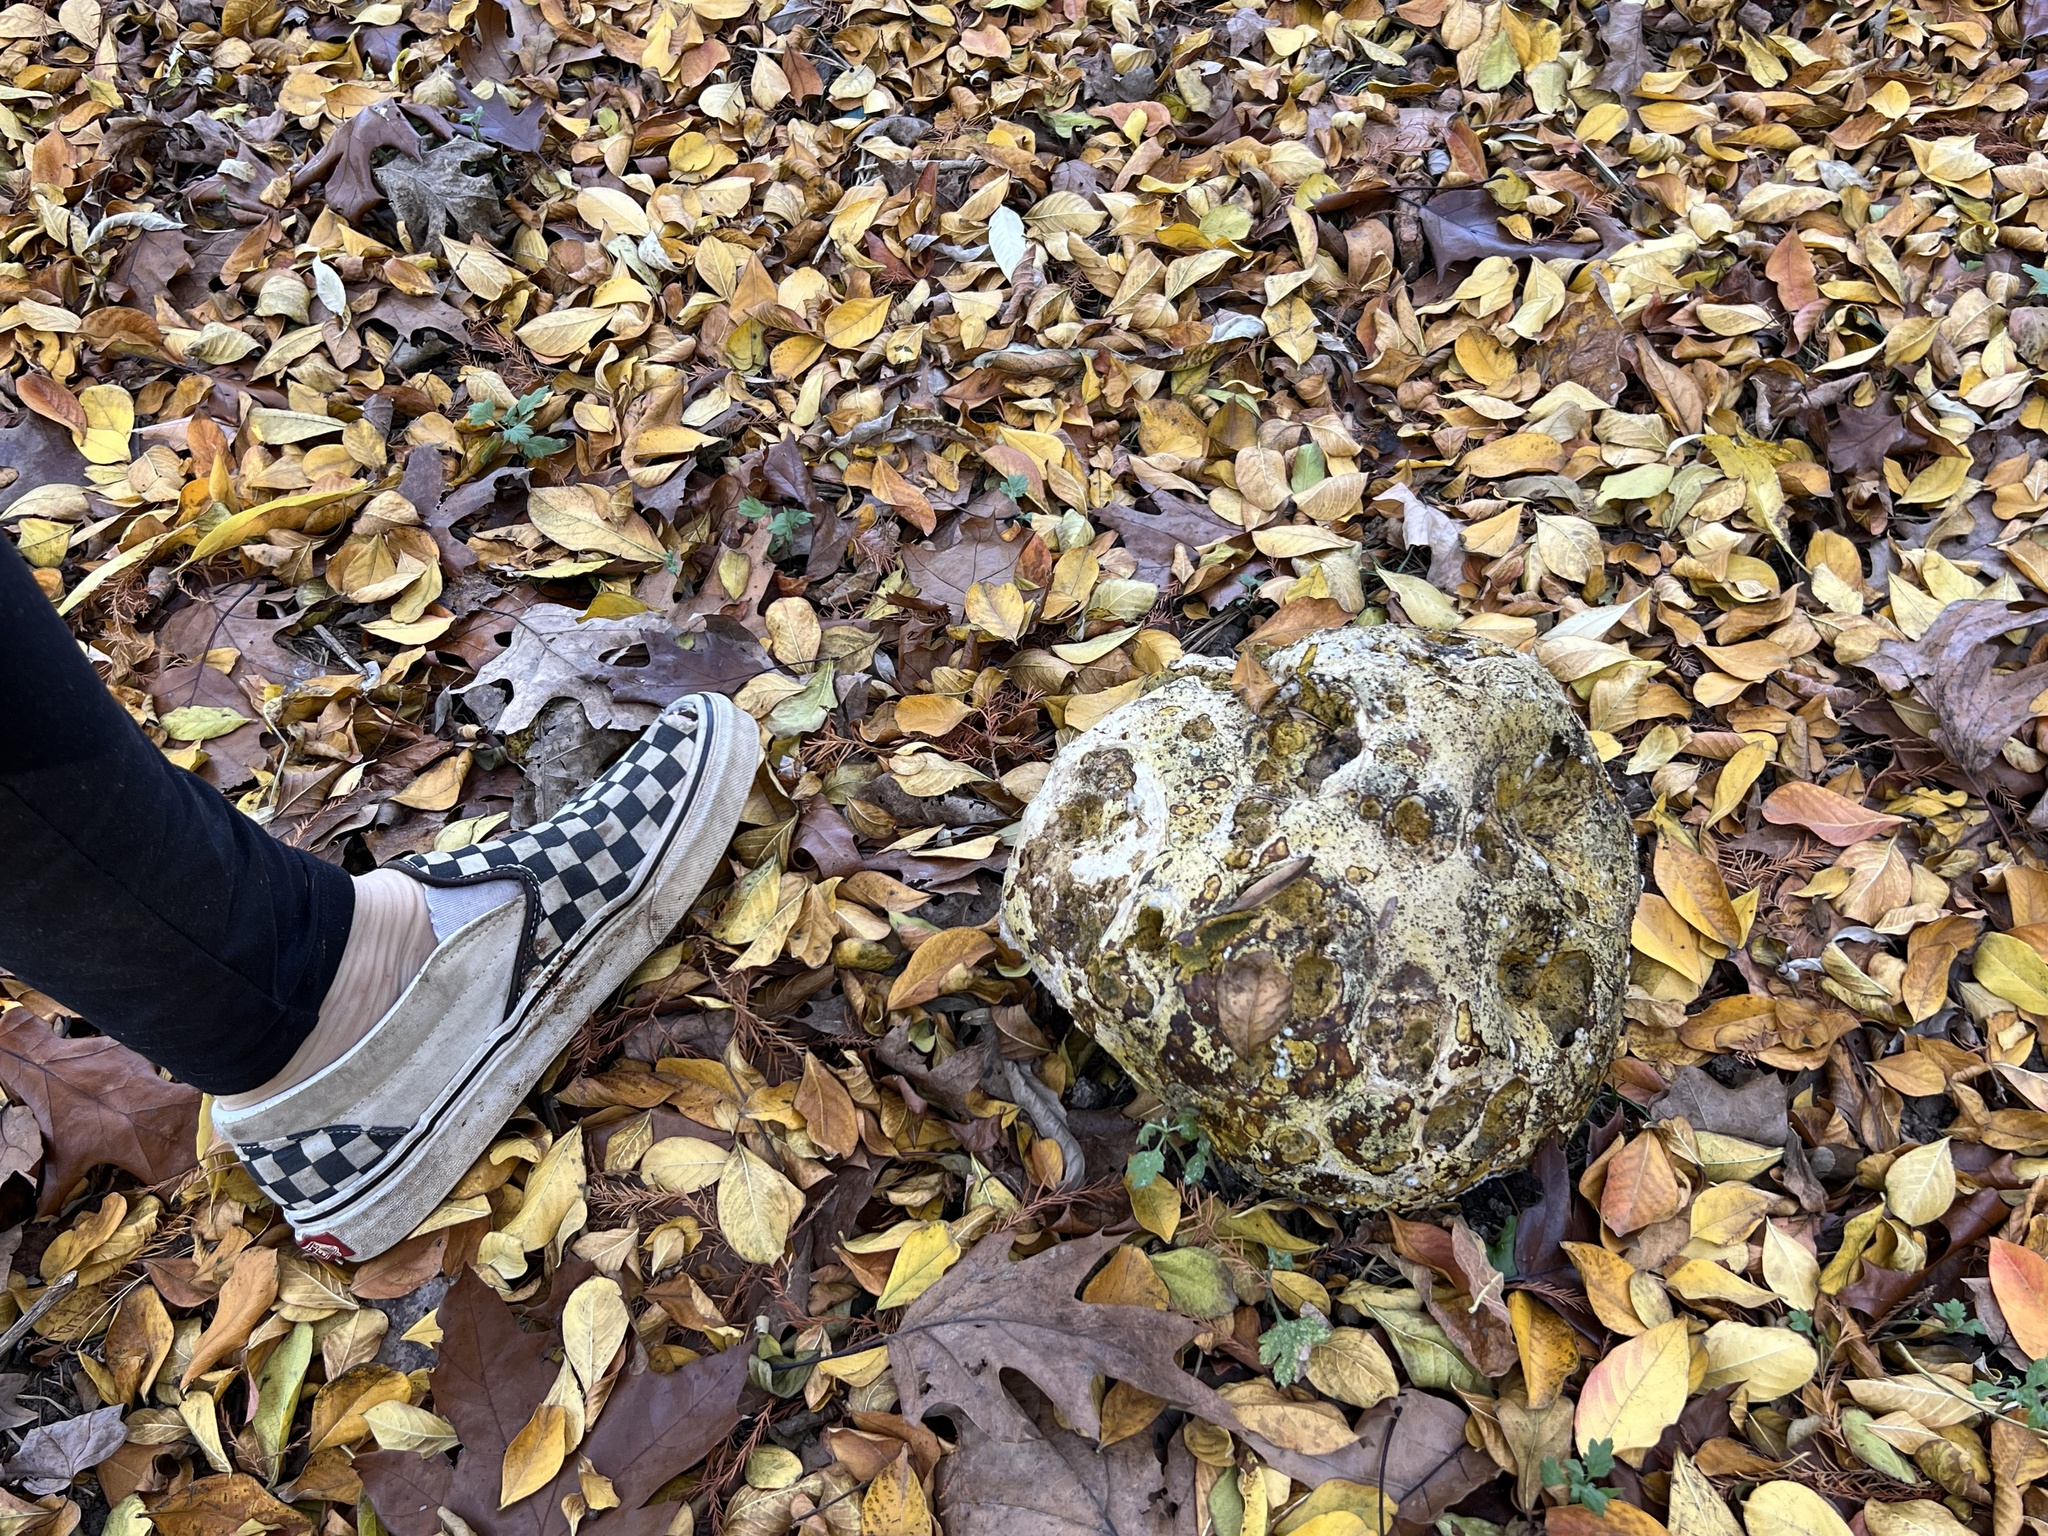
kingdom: Fungi
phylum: Basidiomycota
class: Agaricomycetes
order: Agaricales
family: Lycoperdaceae
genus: Calvatia
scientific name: Calvatia gigantea
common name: Giant puffball
